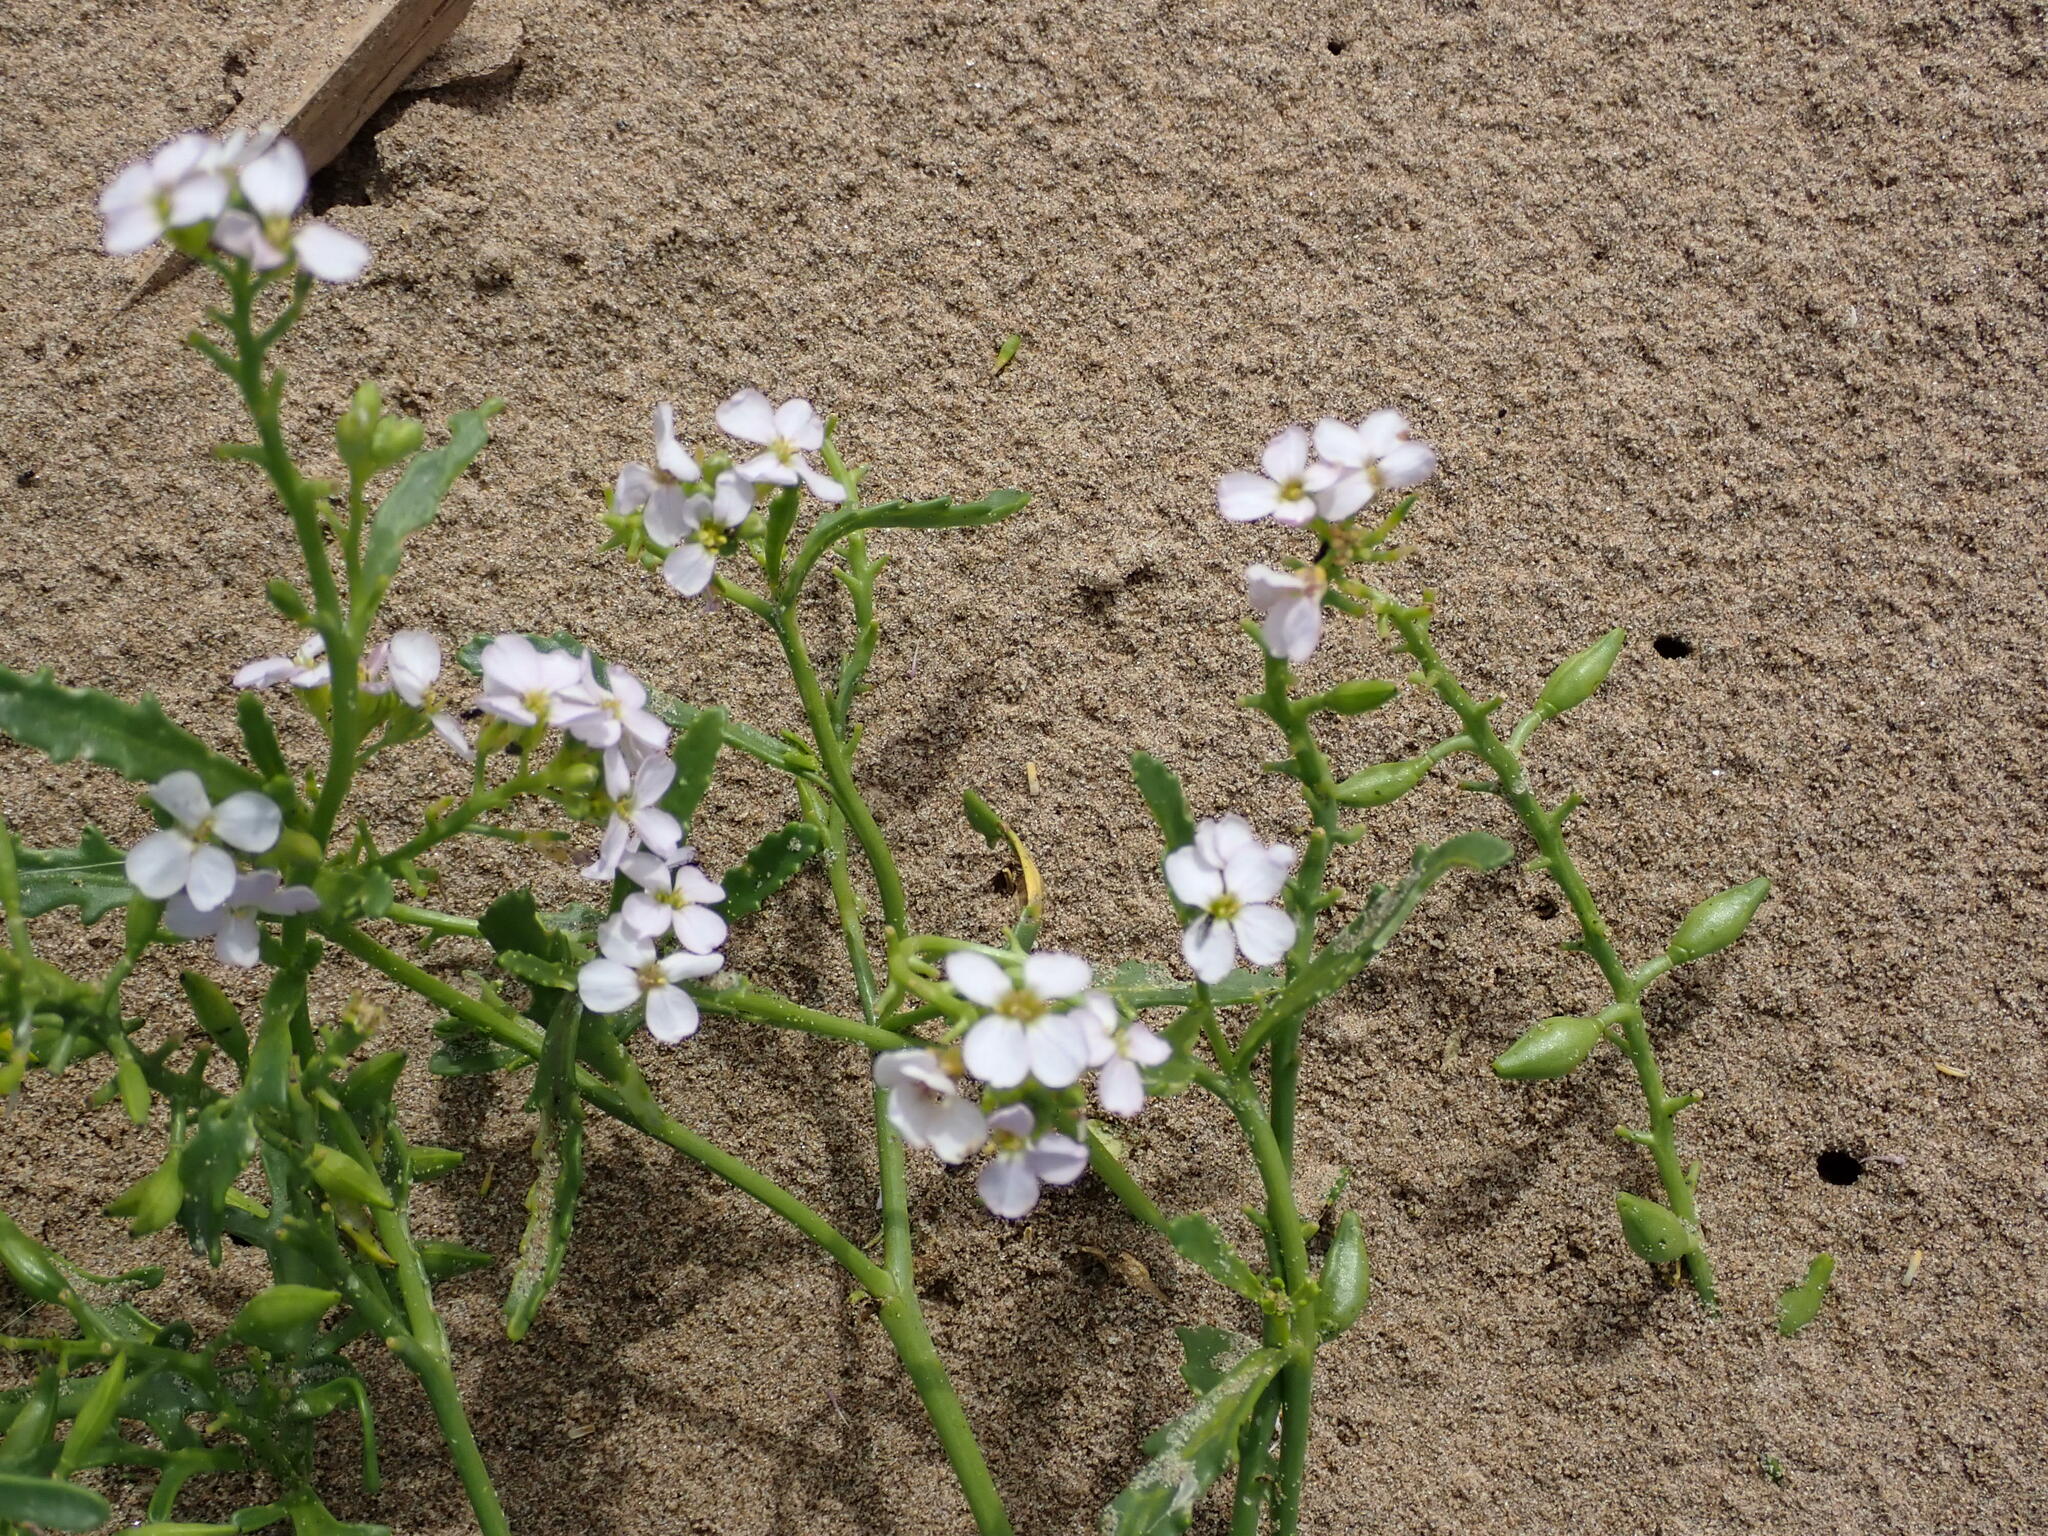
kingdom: Plantae
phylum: Tracheophyta
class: Magnoliopsida
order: Brassicales
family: Brassicaceae
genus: Cakile
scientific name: Cakile maritima
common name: Sea rocket
